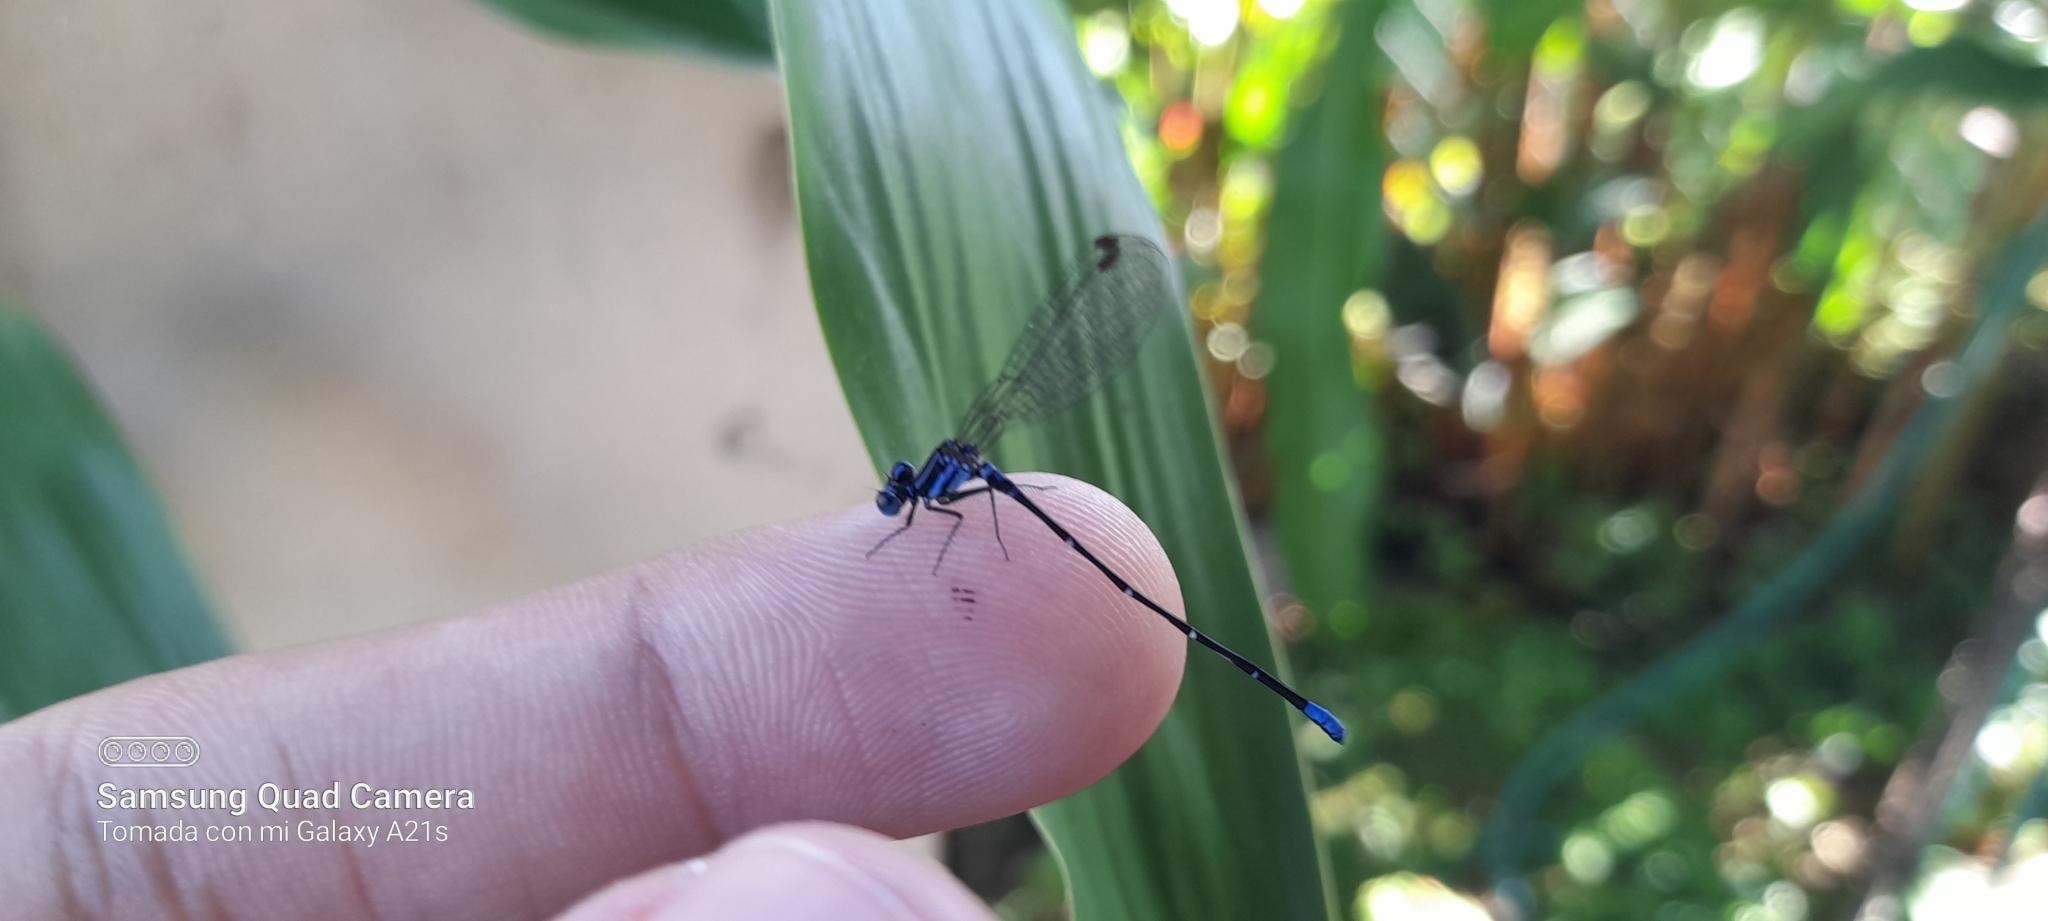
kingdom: Animalia
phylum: Arthropoda
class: Insecta
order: Odonata
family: Coenagrionidae
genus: Argia
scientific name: Argia oculata
